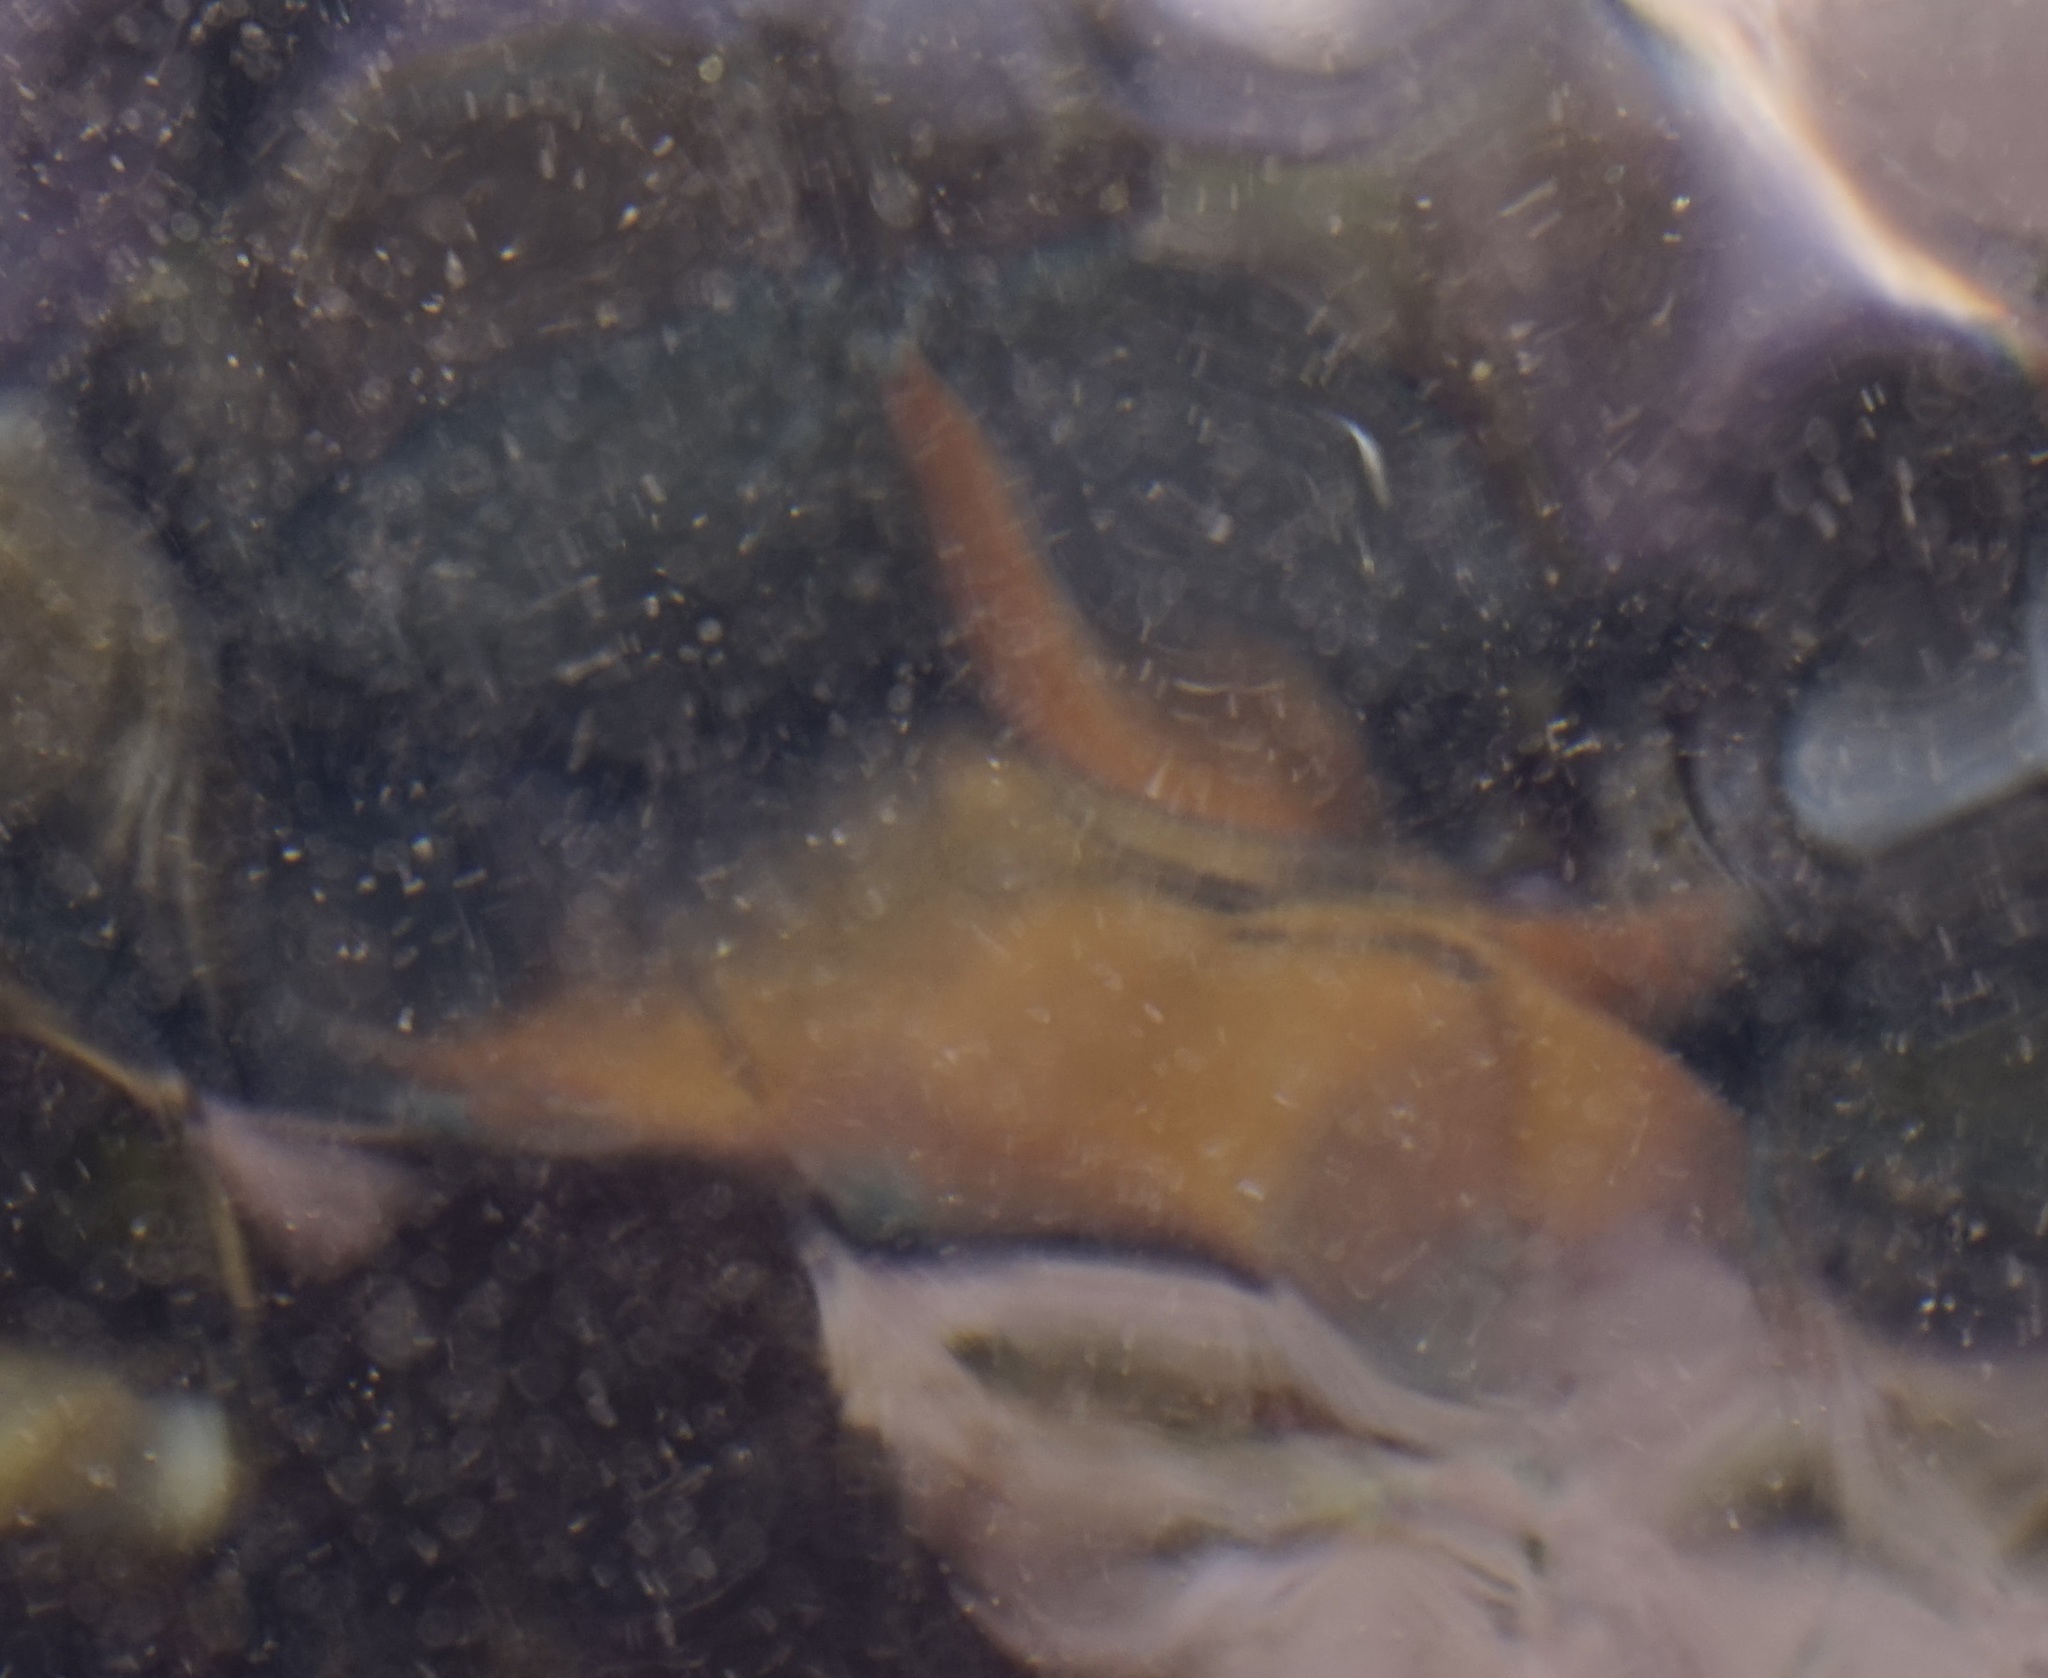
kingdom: Animalia
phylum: Echinodermata
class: Asteroidea
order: Valvatida
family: Asterinidae
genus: Meridiastra
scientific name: Meridiastra calcar
